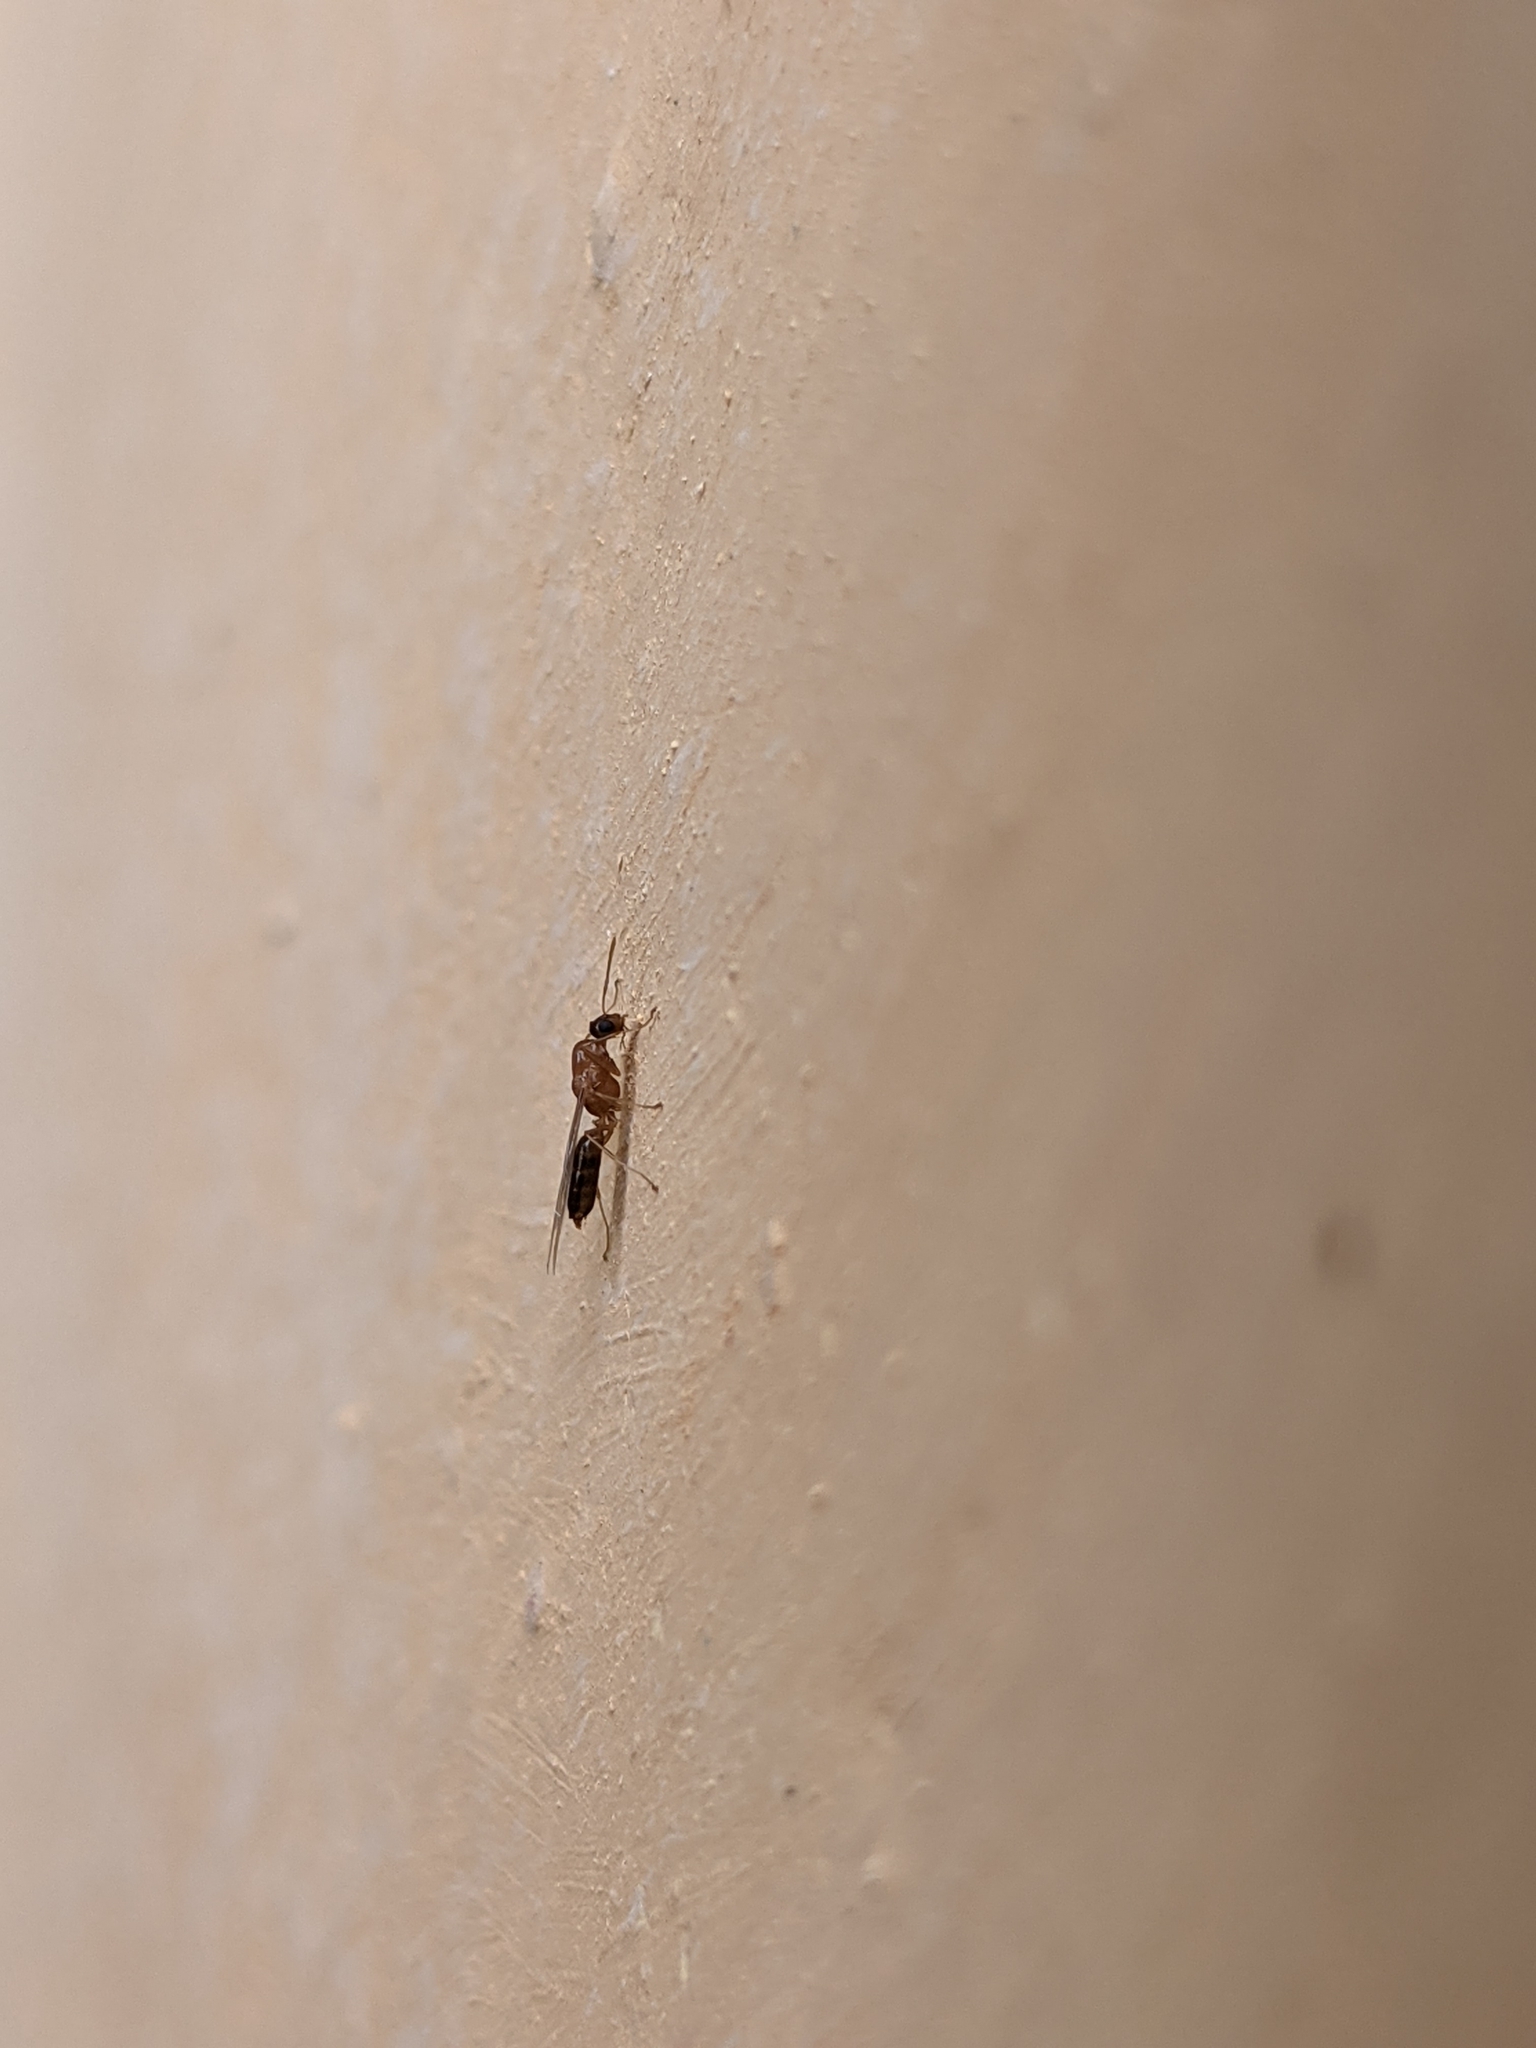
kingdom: Animalia
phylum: Arthropoda
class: Insecta
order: Hymenoptera
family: Formicidae
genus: Camponotus
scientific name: Camponotus truncatus
